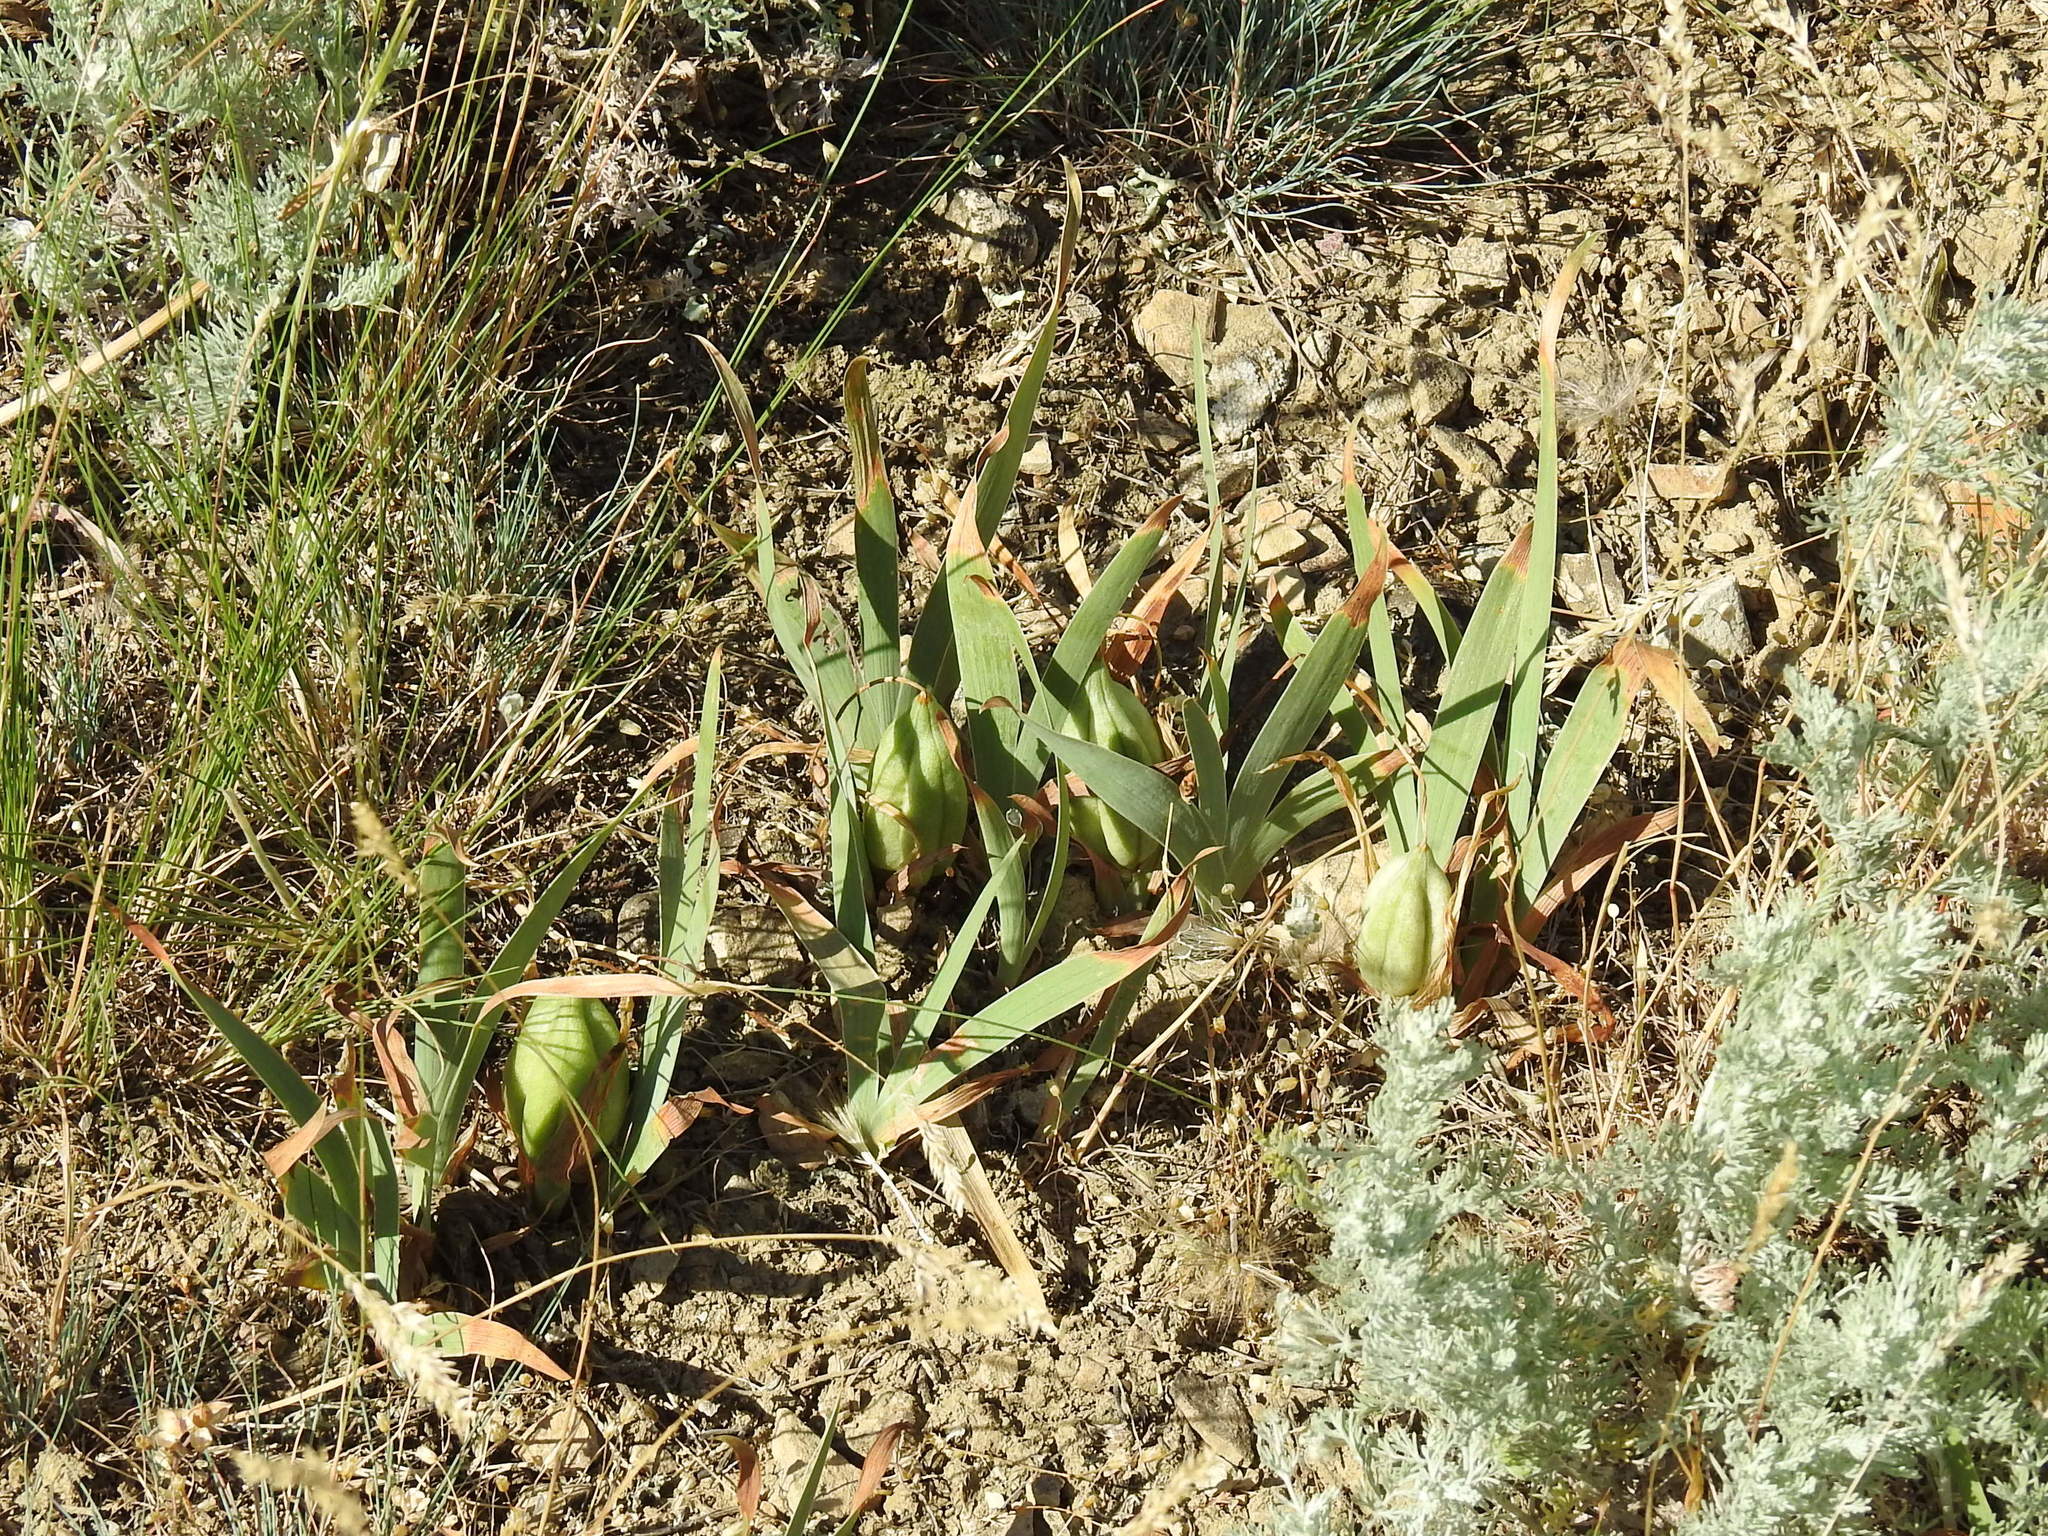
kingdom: Plantae
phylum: Tracheophyta
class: Liliopsida
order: Asparagales
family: Iridaceae
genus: Iris
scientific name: Iris pumila
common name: Dwarf iris
